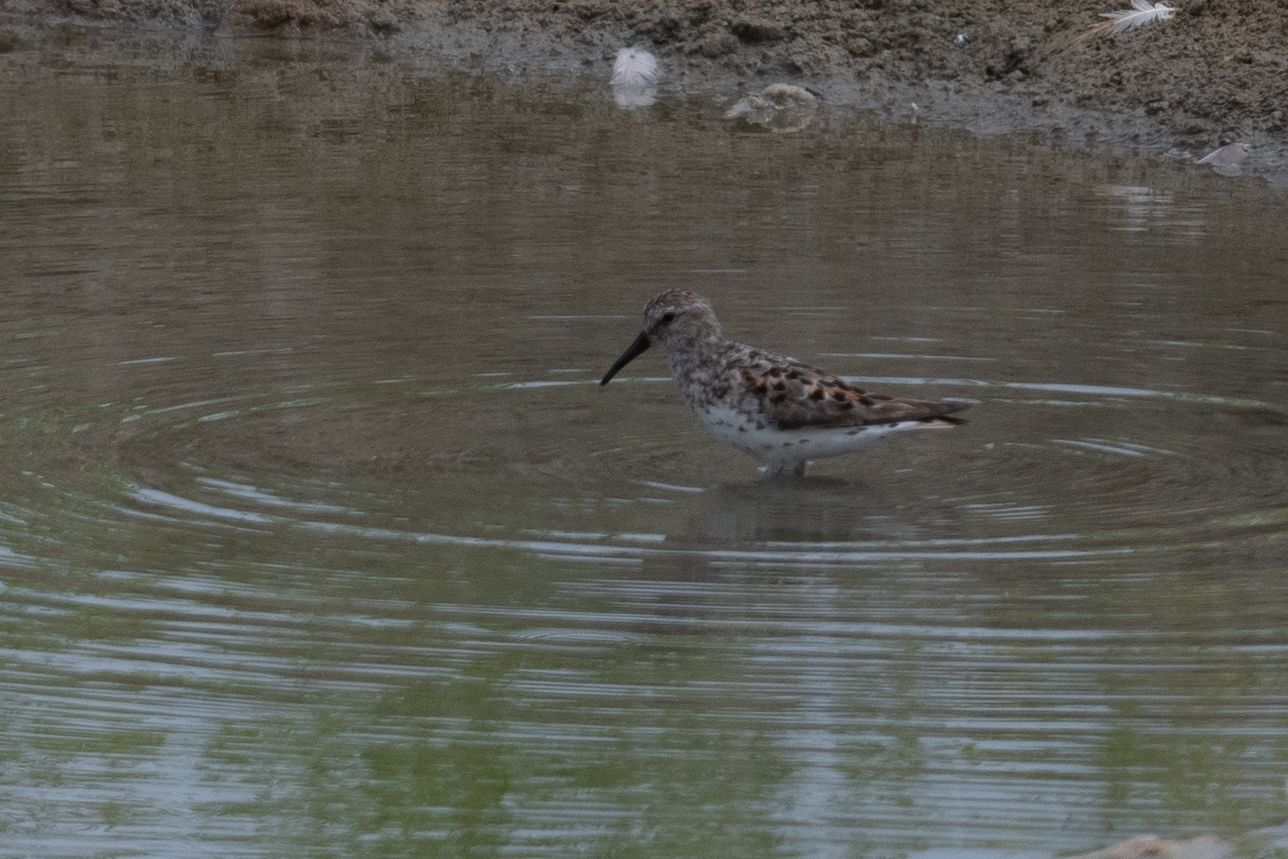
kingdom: Animalia
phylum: Chordata
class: Aves
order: Charadriiformes
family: Scolopacidae
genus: Calidris
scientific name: Calidris mauri
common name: Western sandpiper
